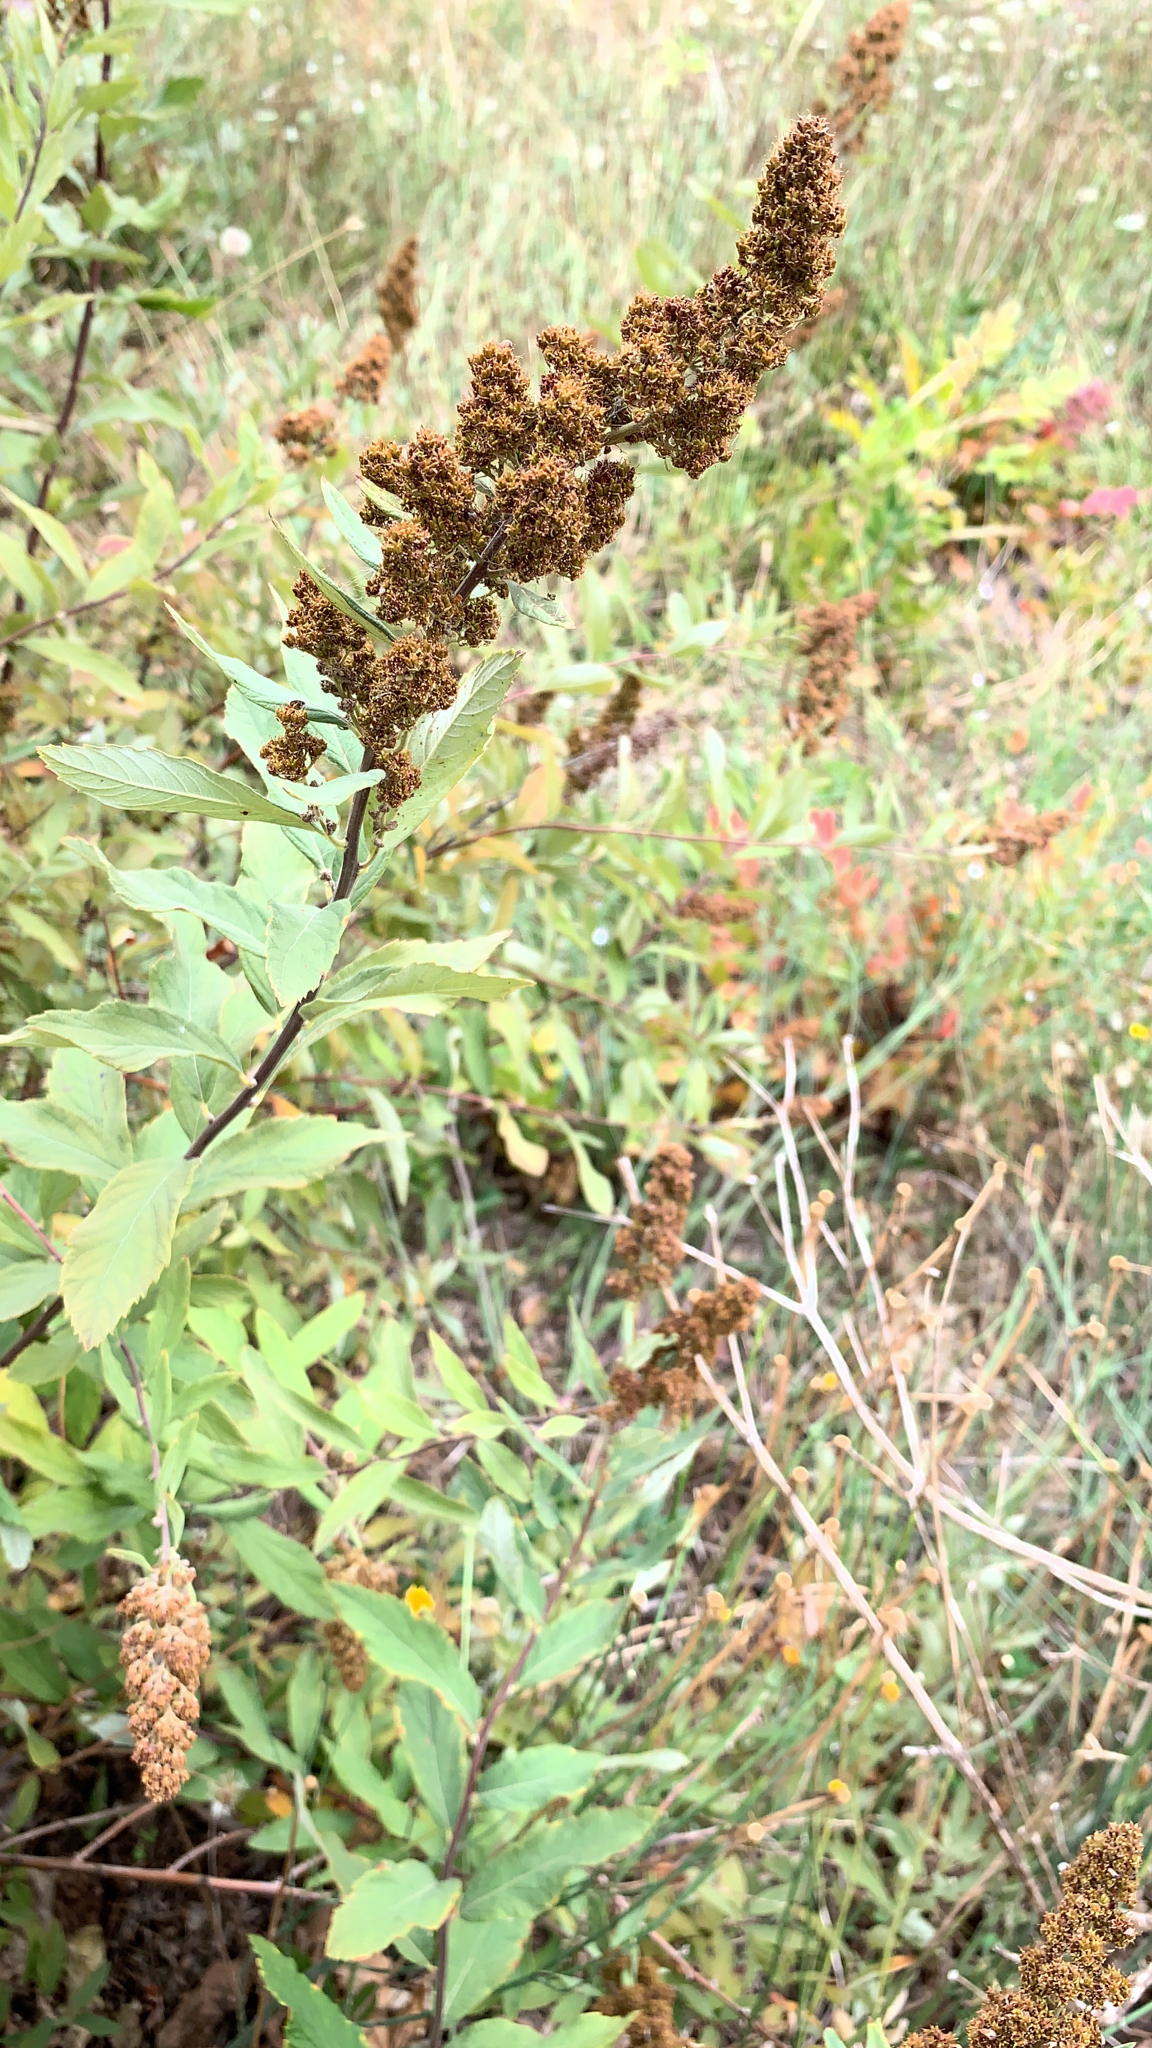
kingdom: Plantae
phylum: Tracheophyta
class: Magnoliopsida
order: Rosales
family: Rosaceae
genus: Spiraea
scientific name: Spiraea douglasii
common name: Steeplebush
